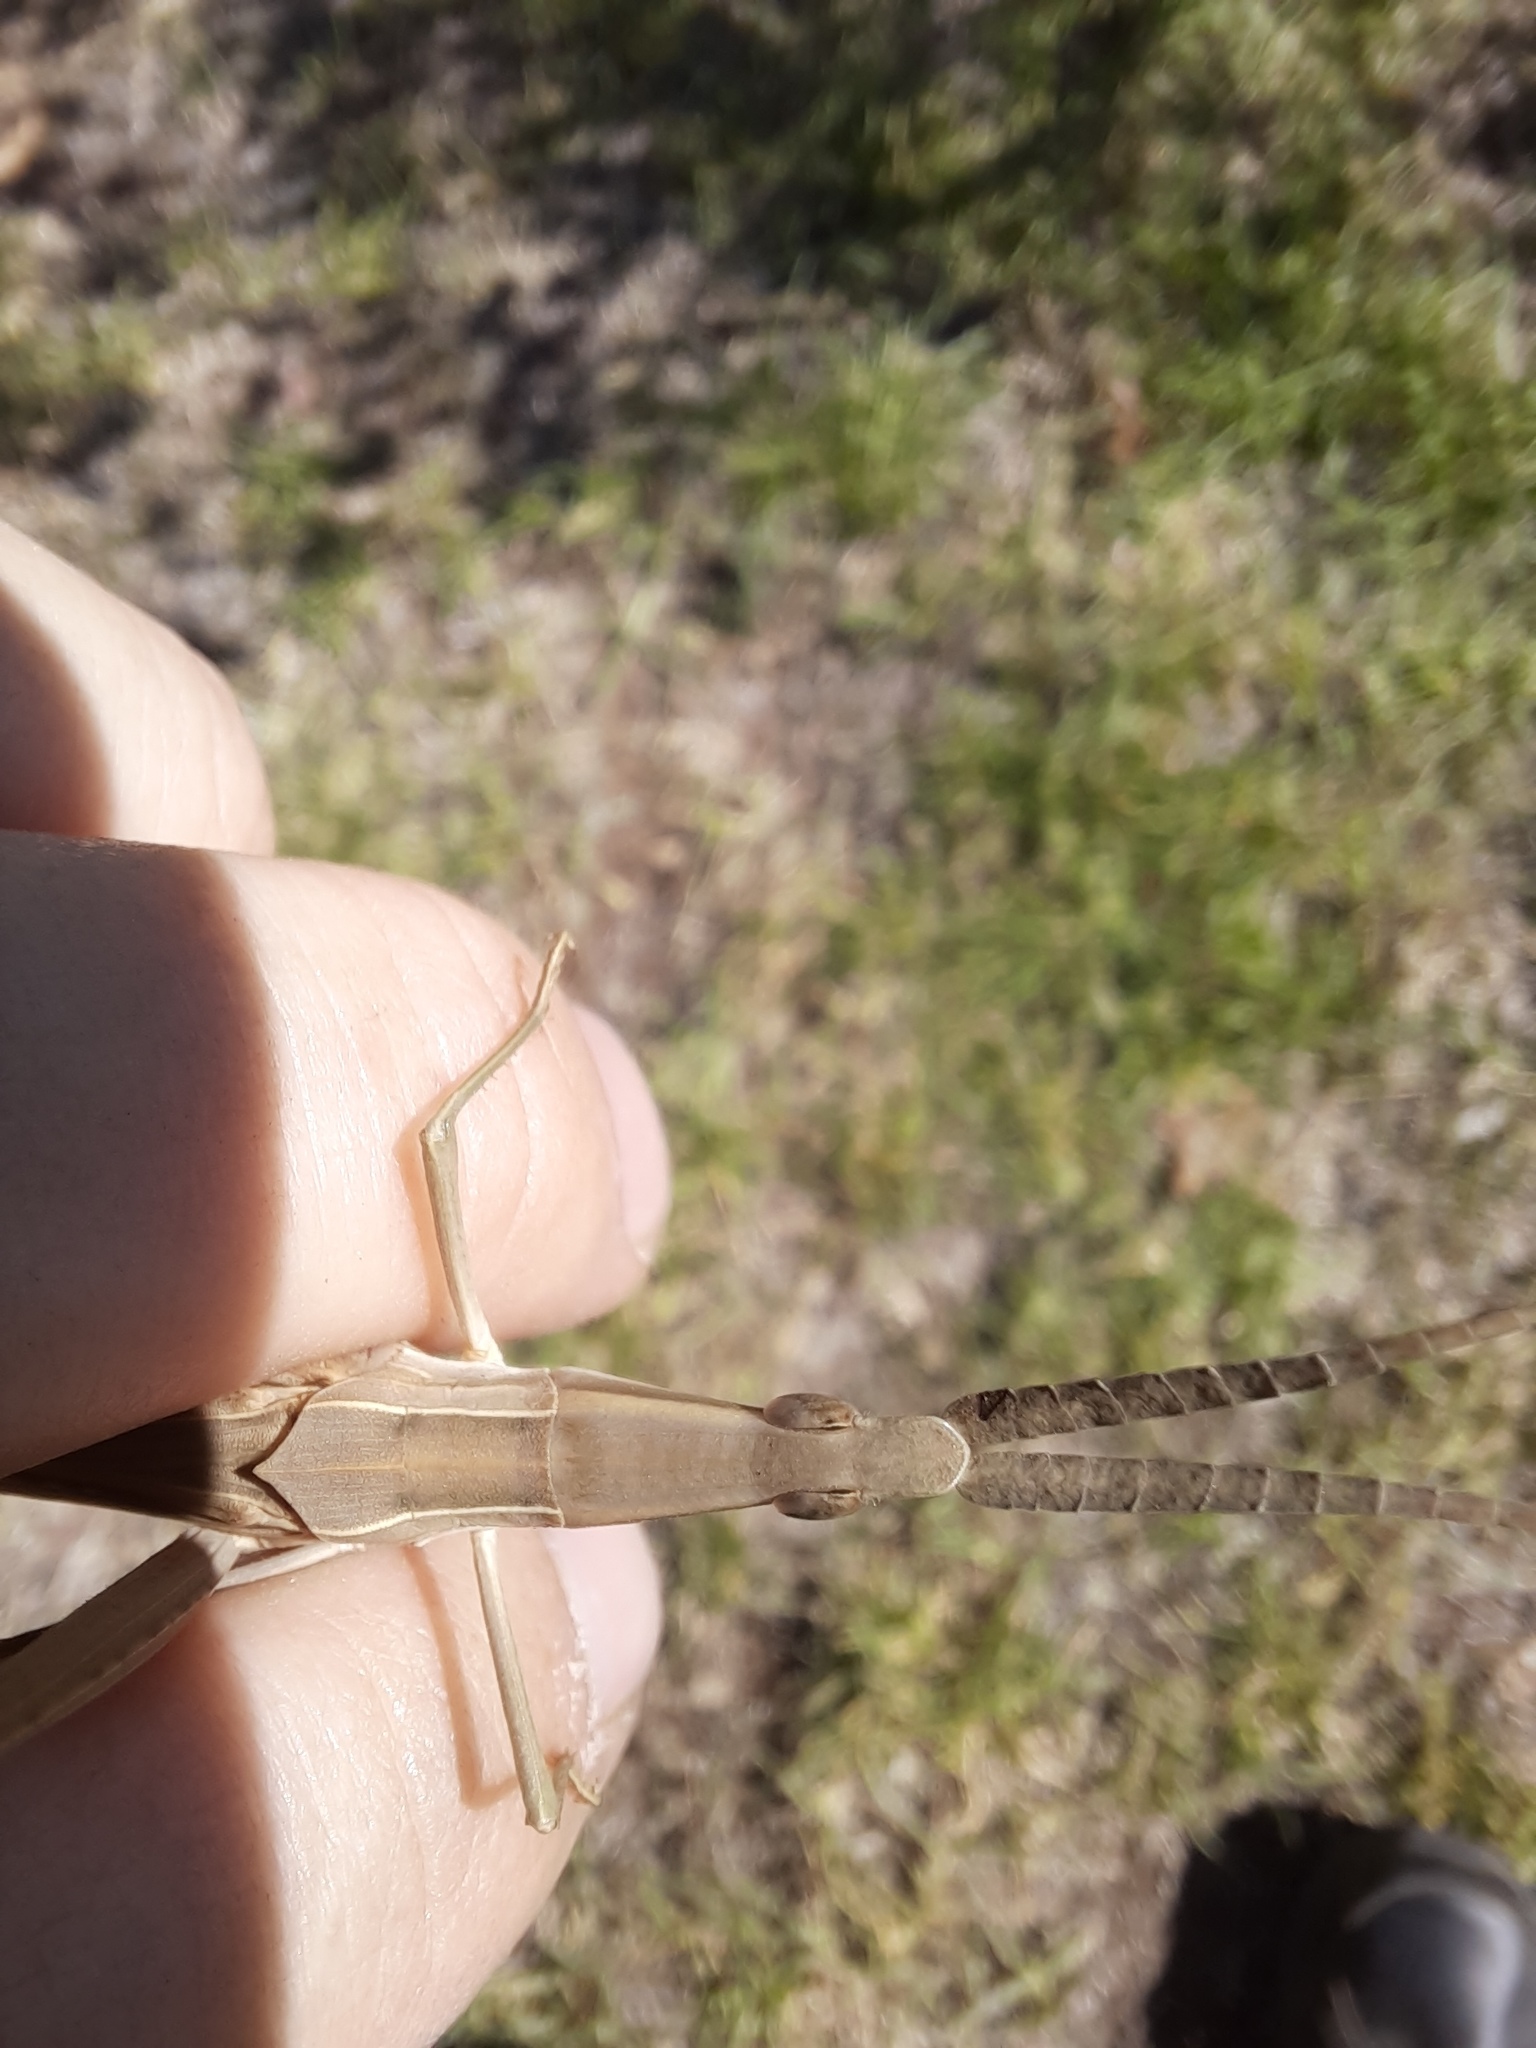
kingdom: Animalia
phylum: Arthropoda
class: Insecta
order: Orthoptera
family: Acrididae
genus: Acrida
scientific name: Acrida conica
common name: Giant green slantface
